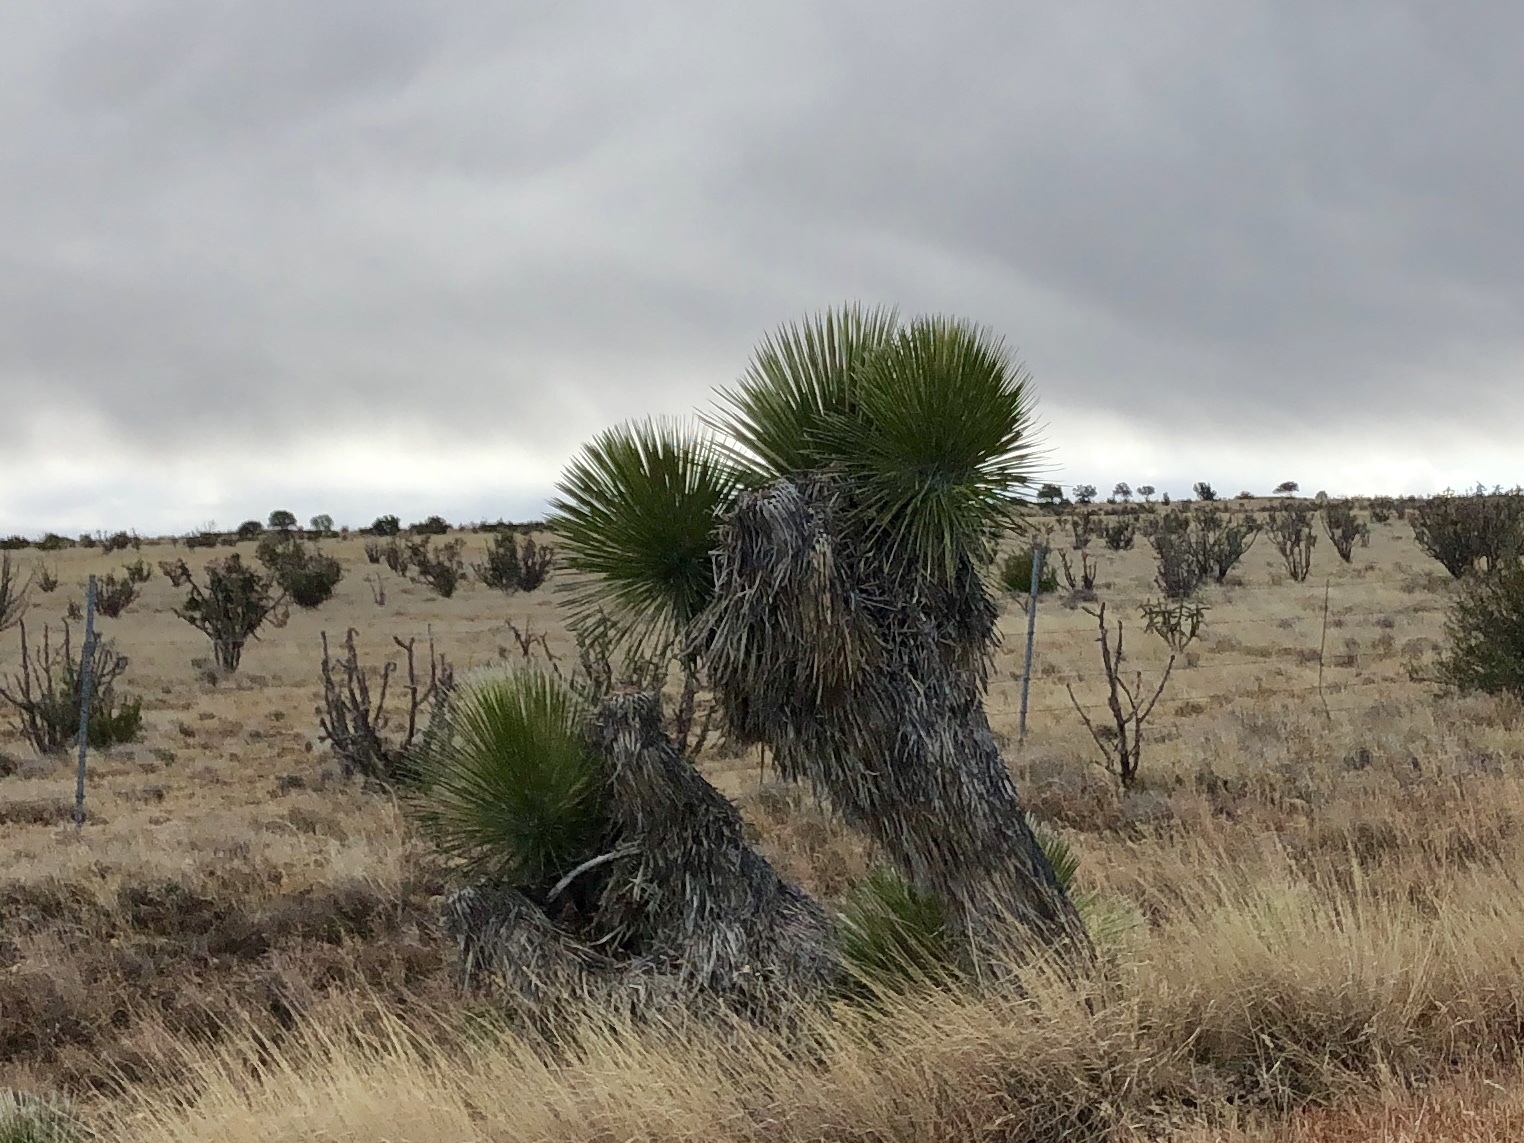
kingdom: Plantae
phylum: Tracheophyta
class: Liliopsida
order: Asparagales
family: Asparagaceae
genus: Yucca
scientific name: Yucca elata
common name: Palmella
